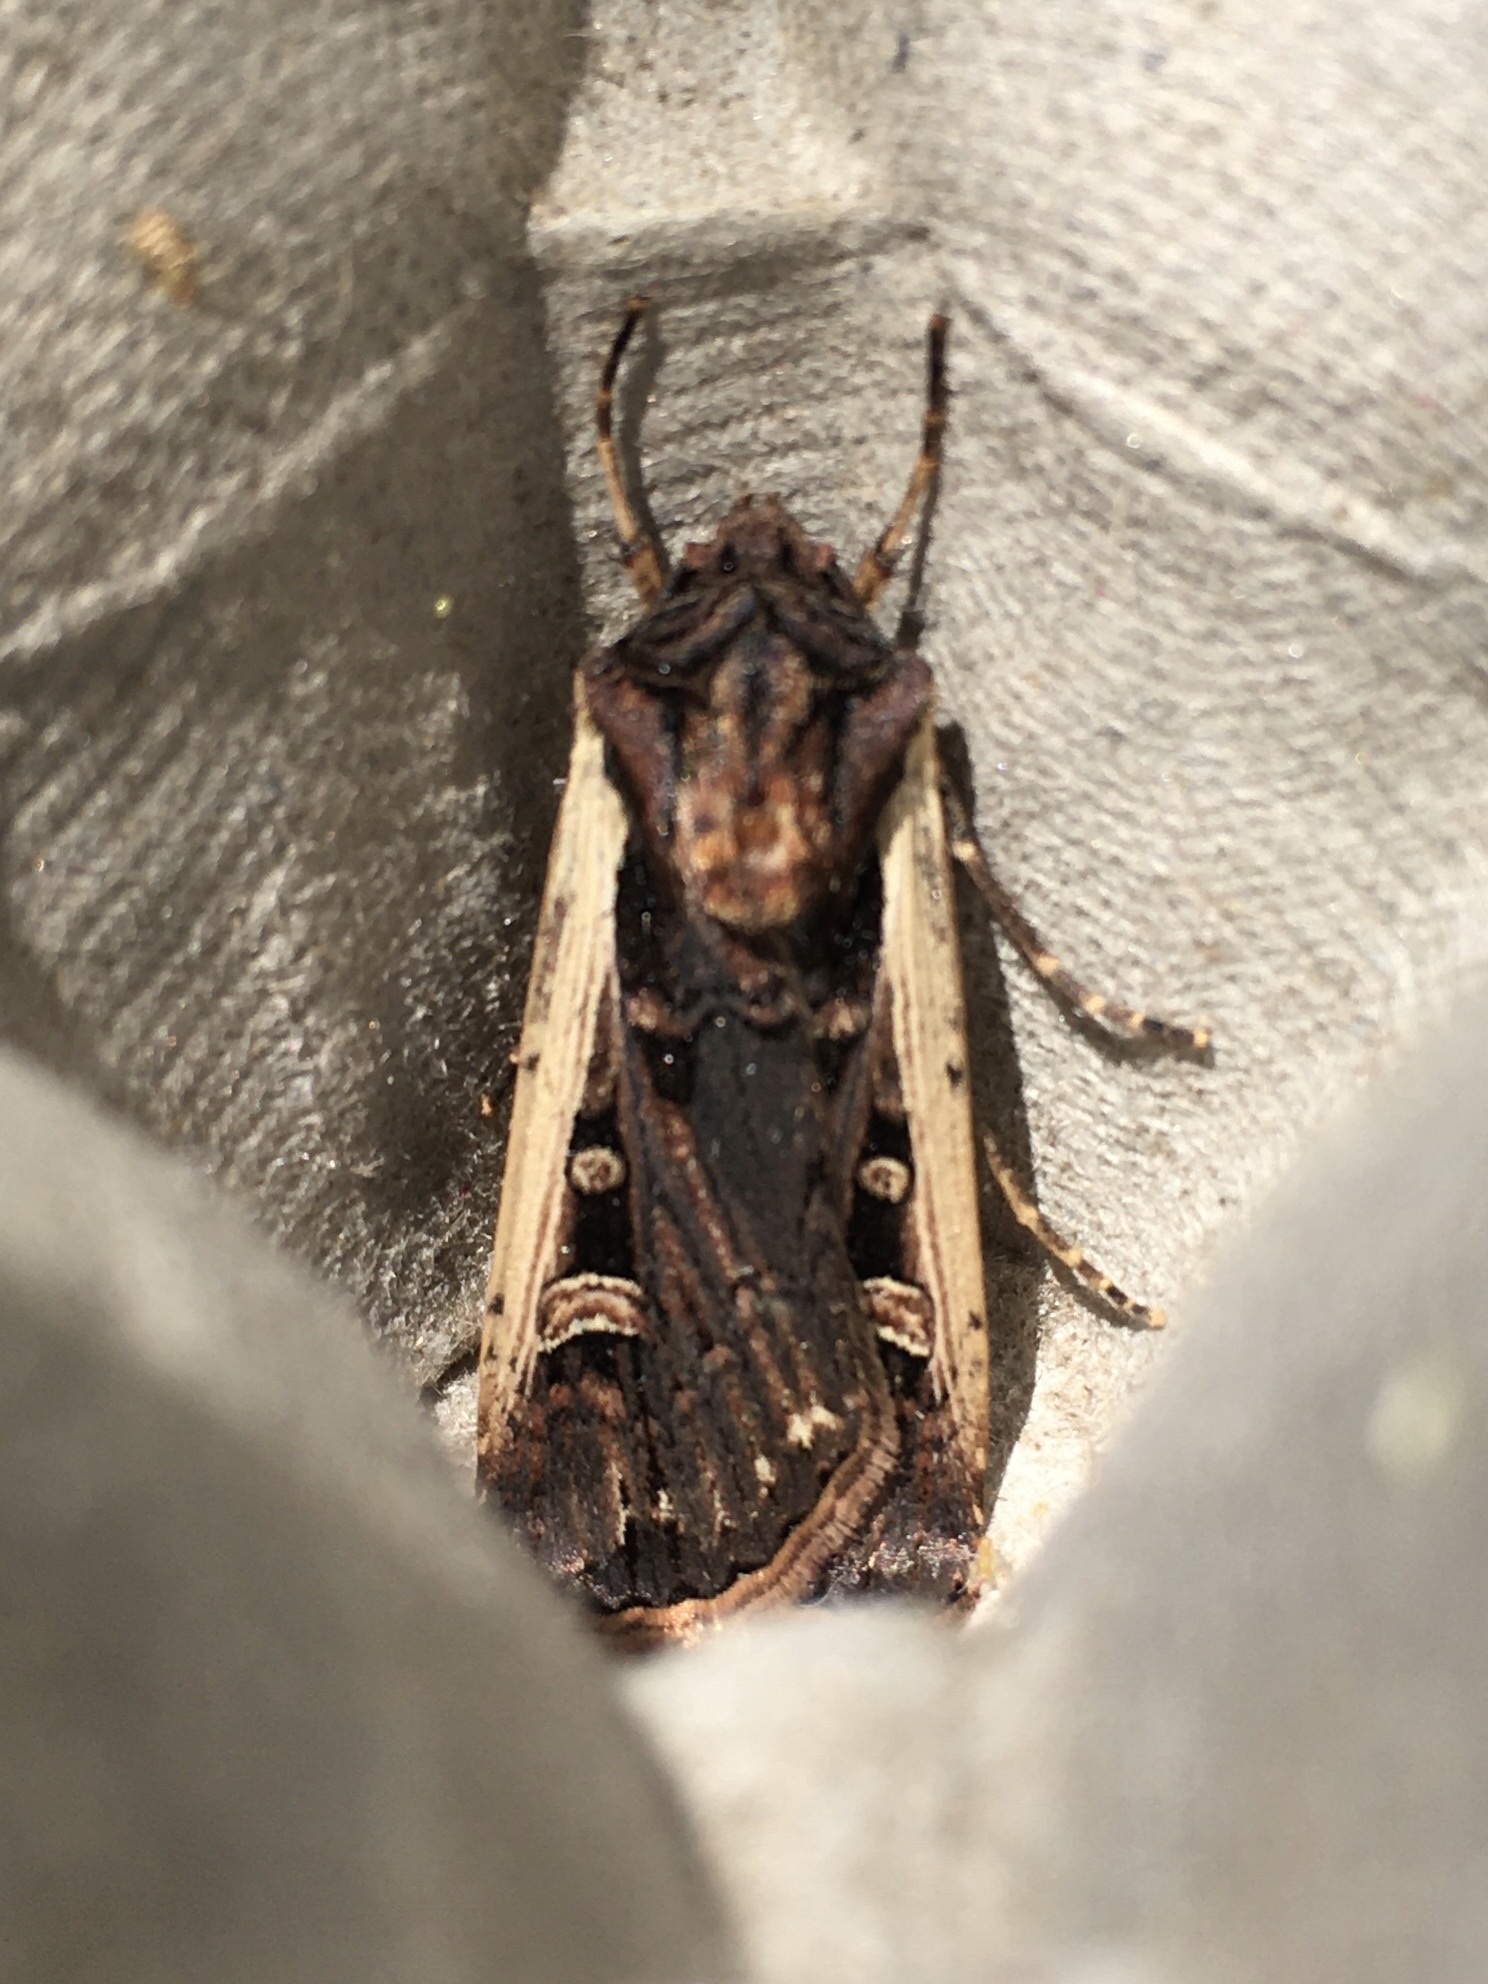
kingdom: Animalia
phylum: Arthropoda
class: Insecta
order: Lepidoptera
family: Noctuidae
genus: Striacosta
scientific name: Striacosta albicosta
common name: Western bean cutworm moth
